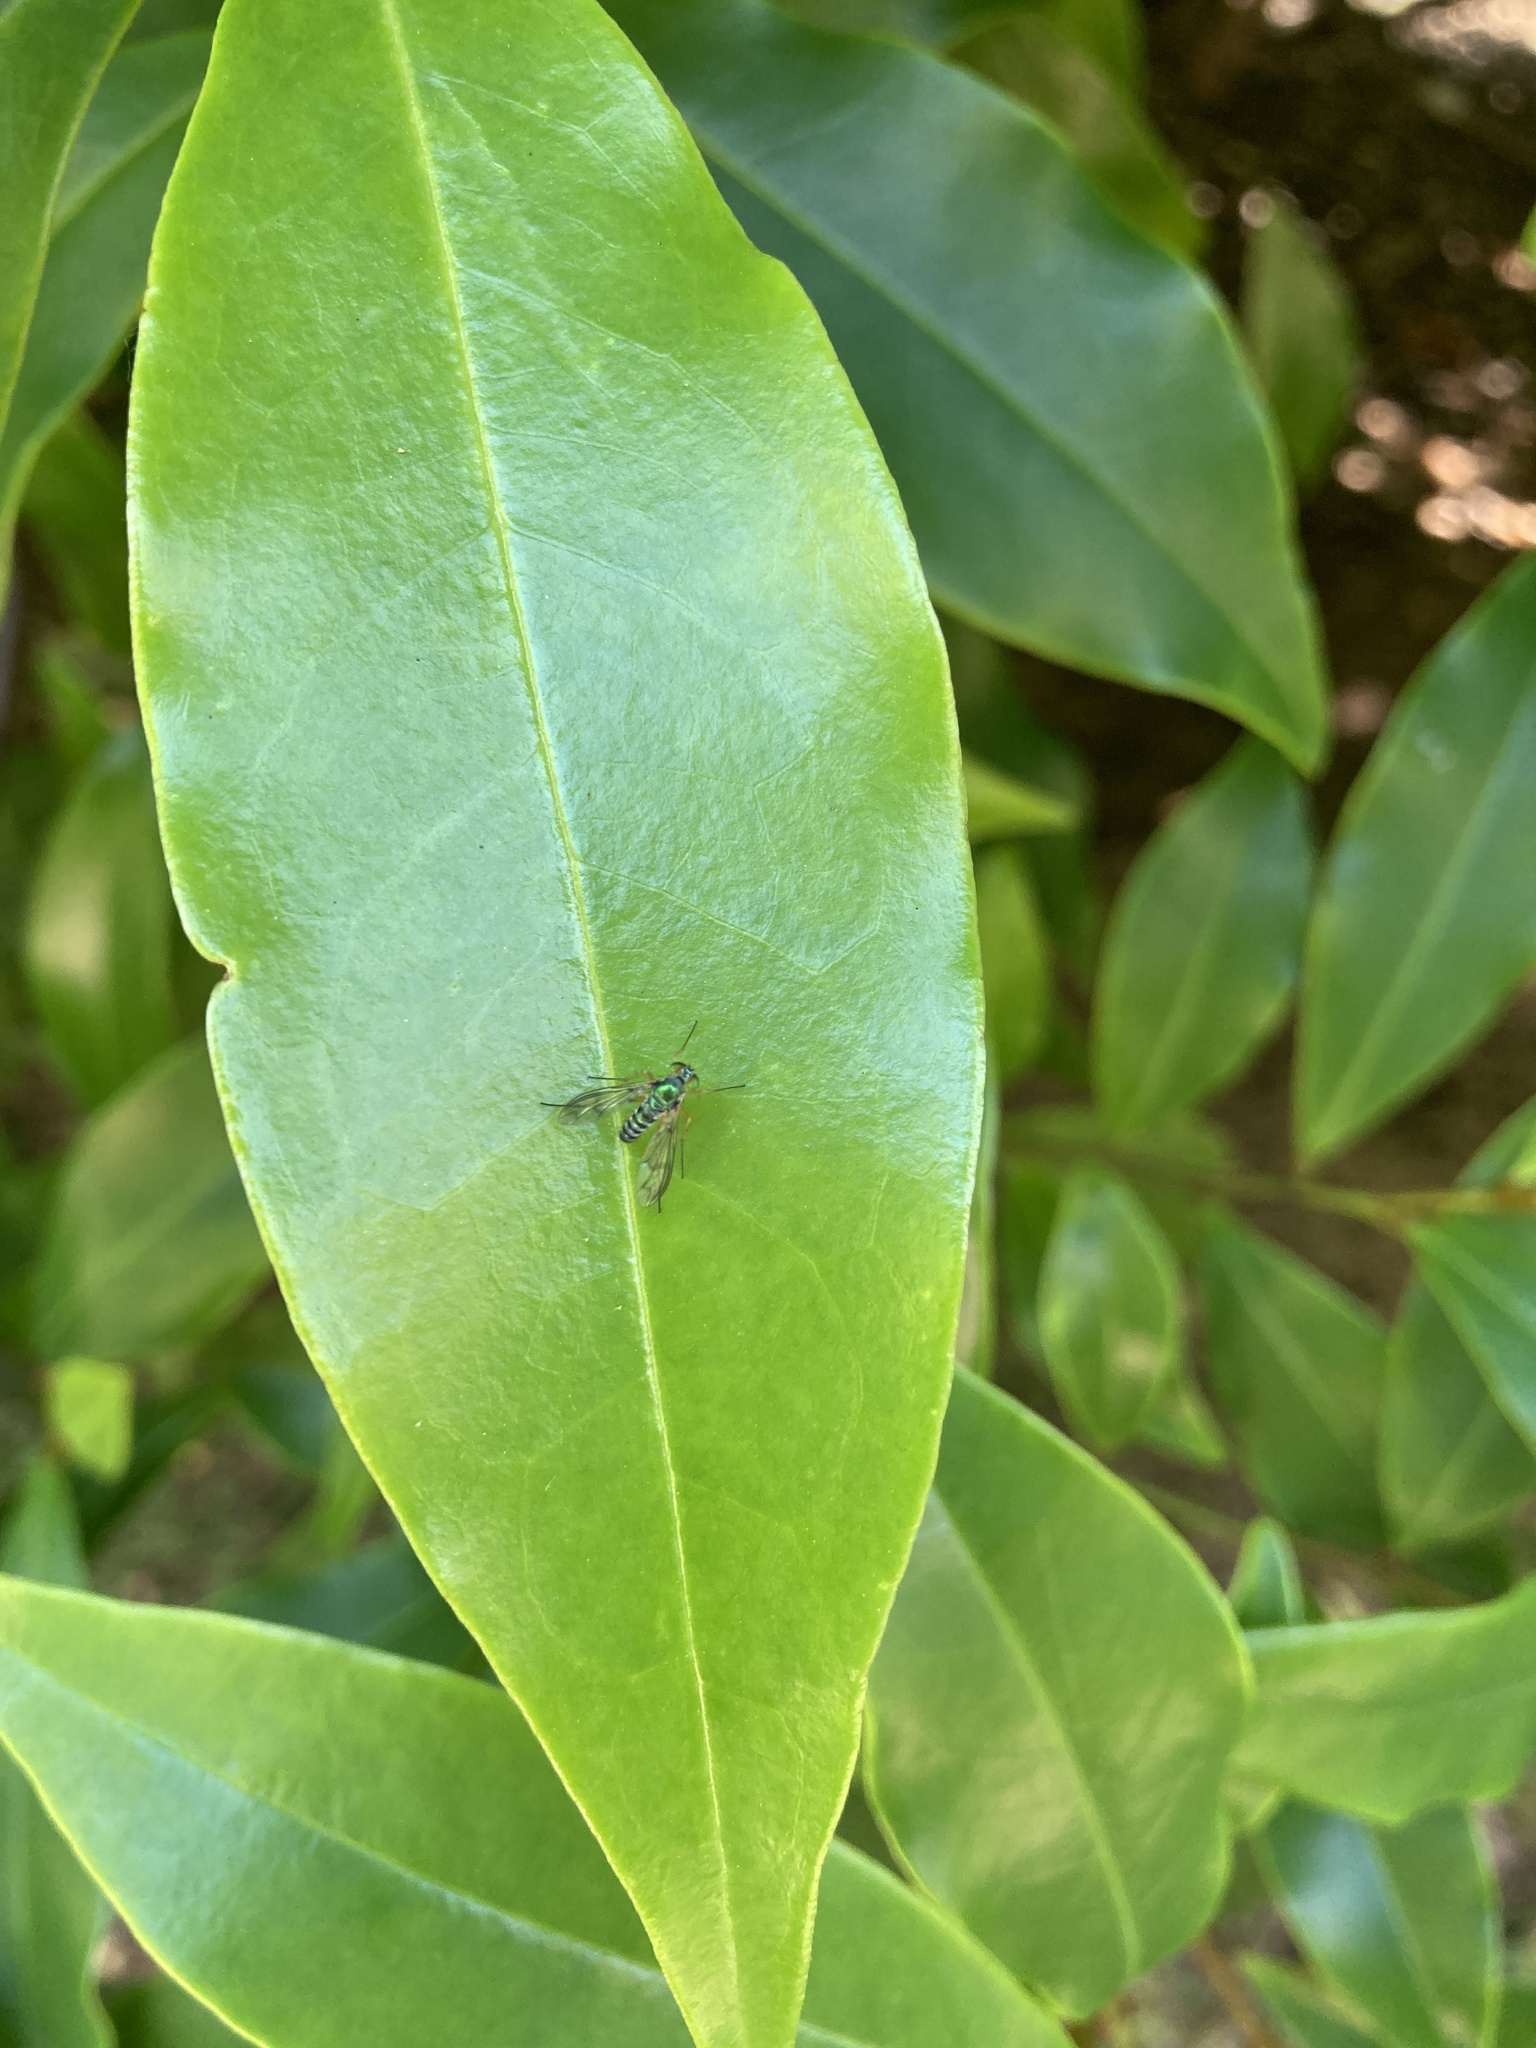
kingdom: Animalia
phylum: Arthropoda
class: Insecta
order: Diptera
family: Dolichopodidae
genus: Austrosciapus
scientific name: Austrosciapus proximus
